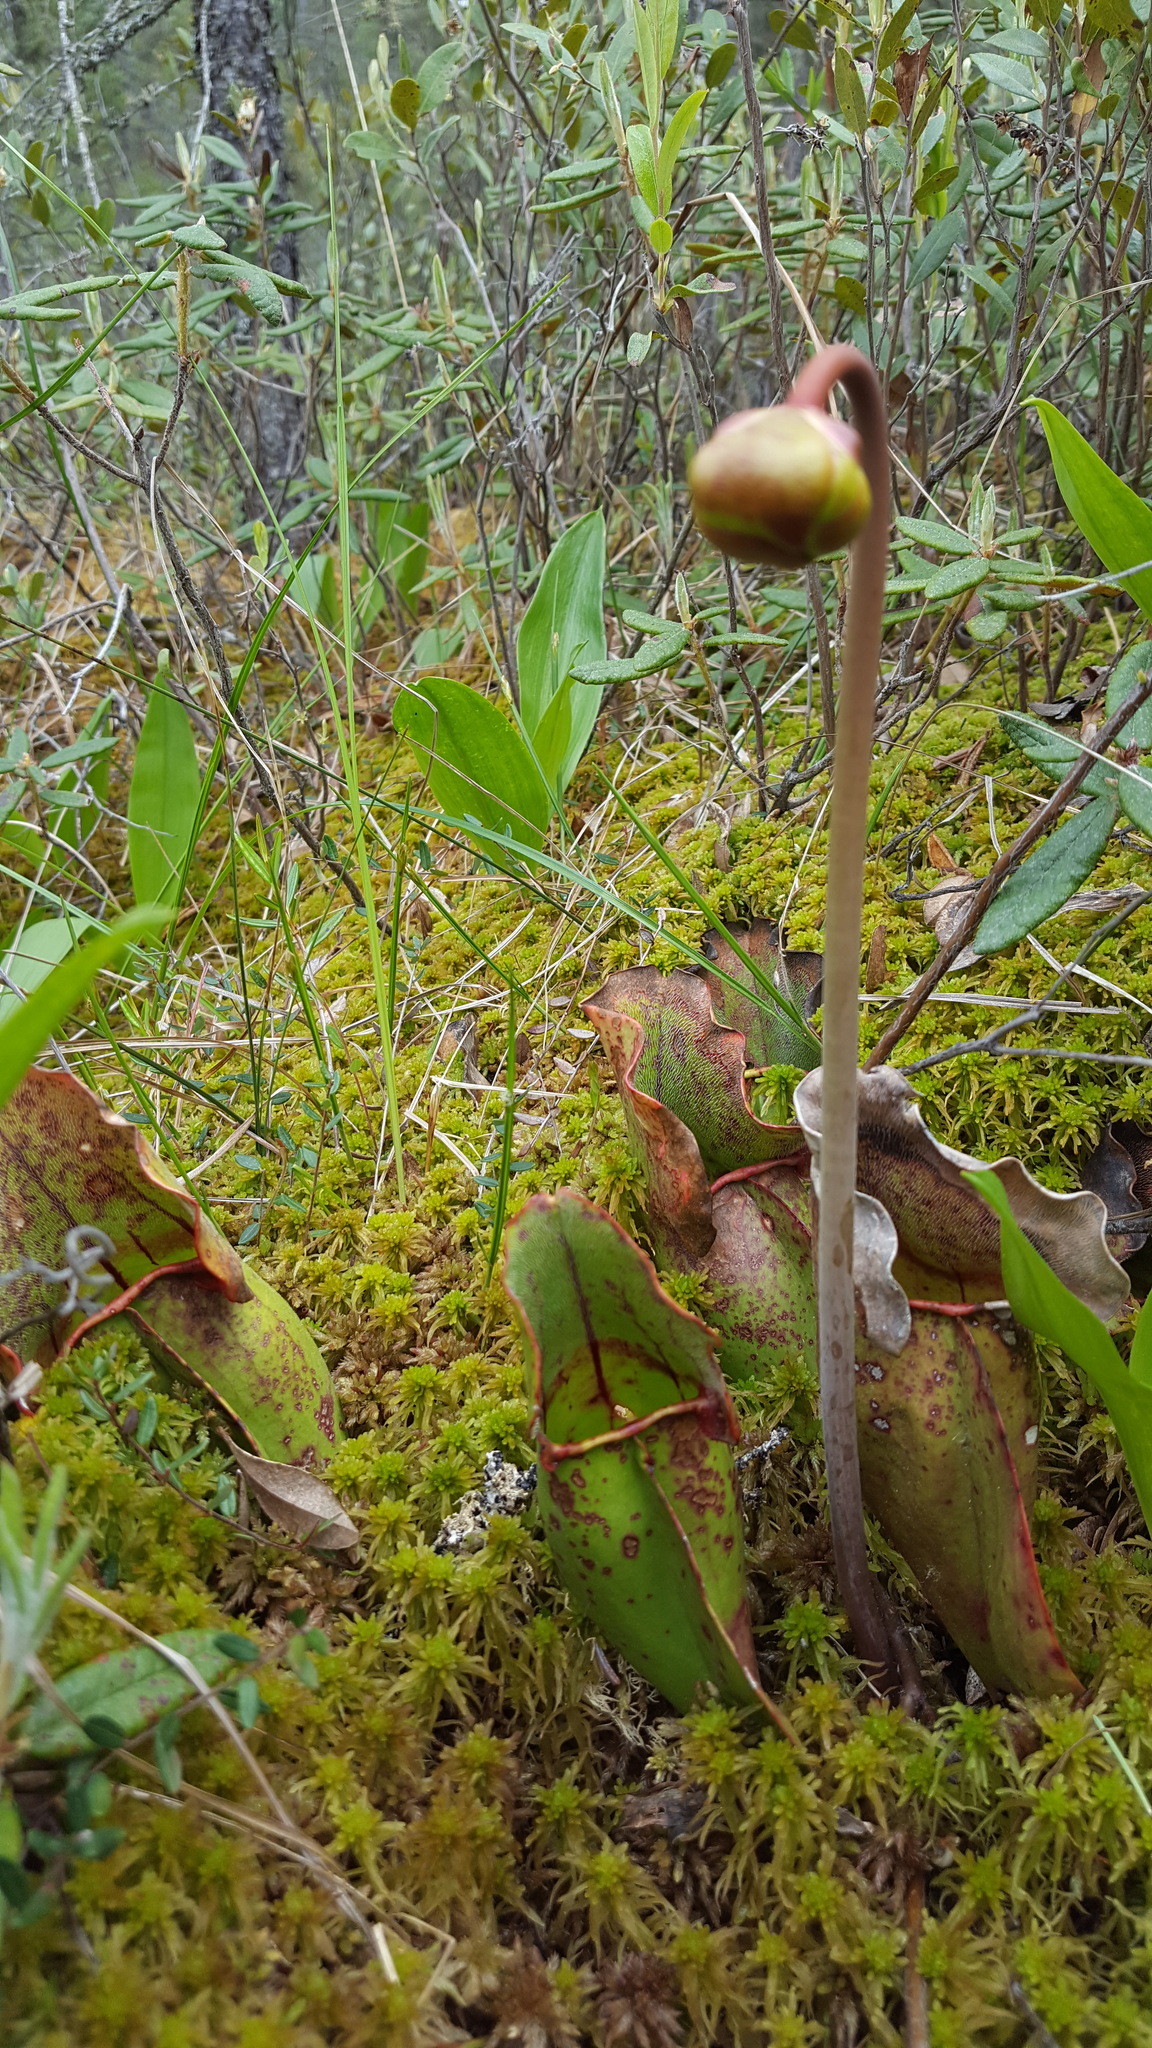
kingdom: Plantae
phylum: Tracheophyta
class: Magnoliopsida
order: Ericales
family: Sarraceniaceae
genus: Sarracenia
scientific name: Sarracenia purpurea
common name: Pitcherplant
